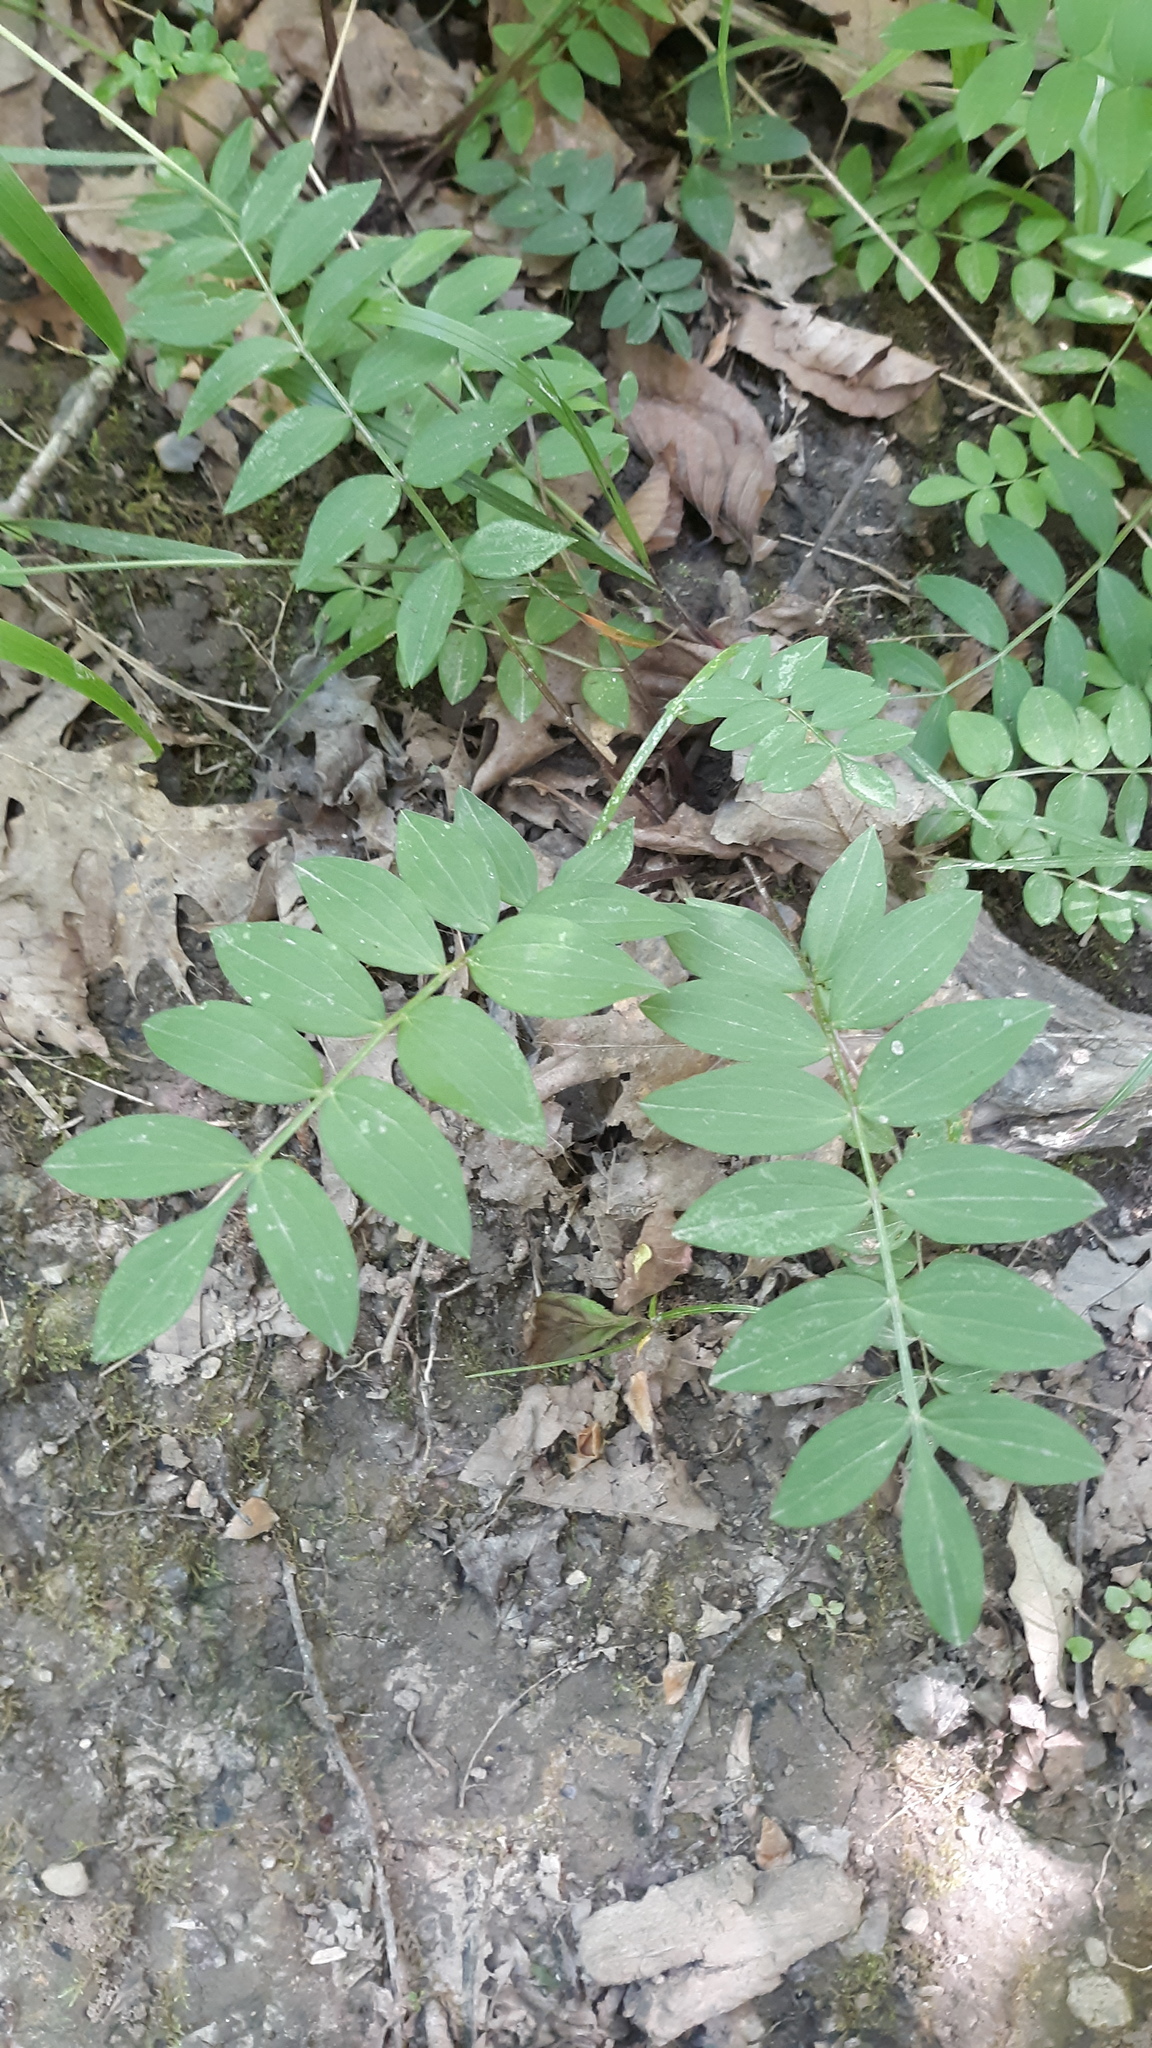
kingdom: Plantae
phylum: Tracheophyta
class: Magnoliopsida
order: Ericales
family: Polemoniaceae
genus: Polemonium
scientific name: Polemonium reptans
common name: Creeping jacob's-ladder
